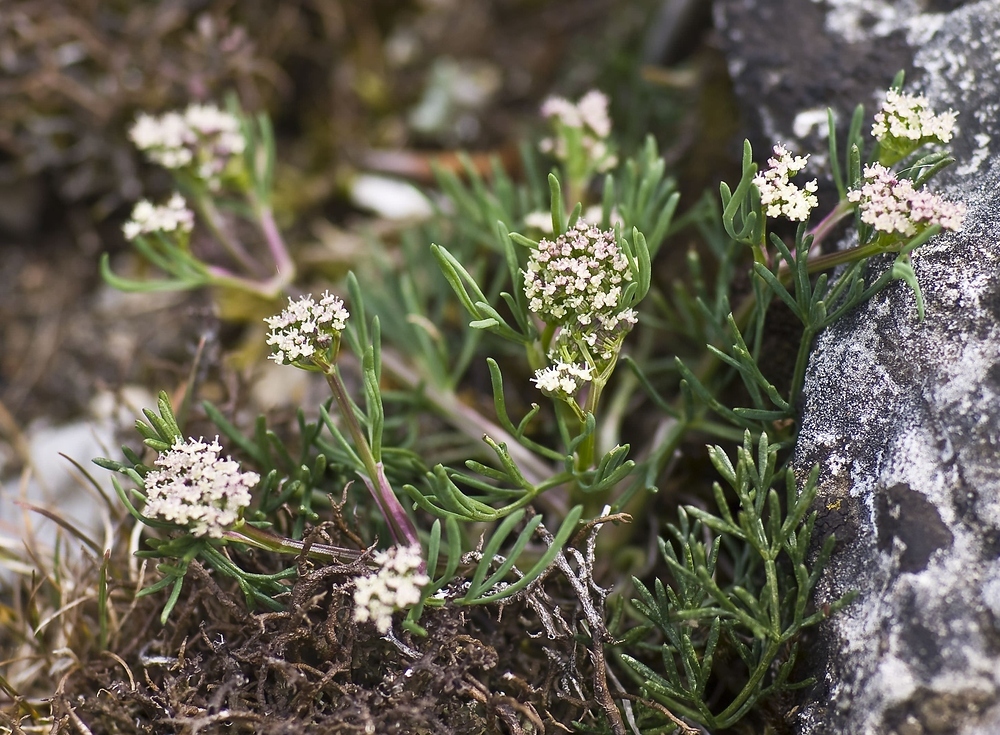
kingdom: Plantae
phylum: Tracheophyta
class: Magnoliopsida
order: Apiales
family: Apiaceae
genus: Trinia
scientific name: Trinia glauca
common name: Honewort
